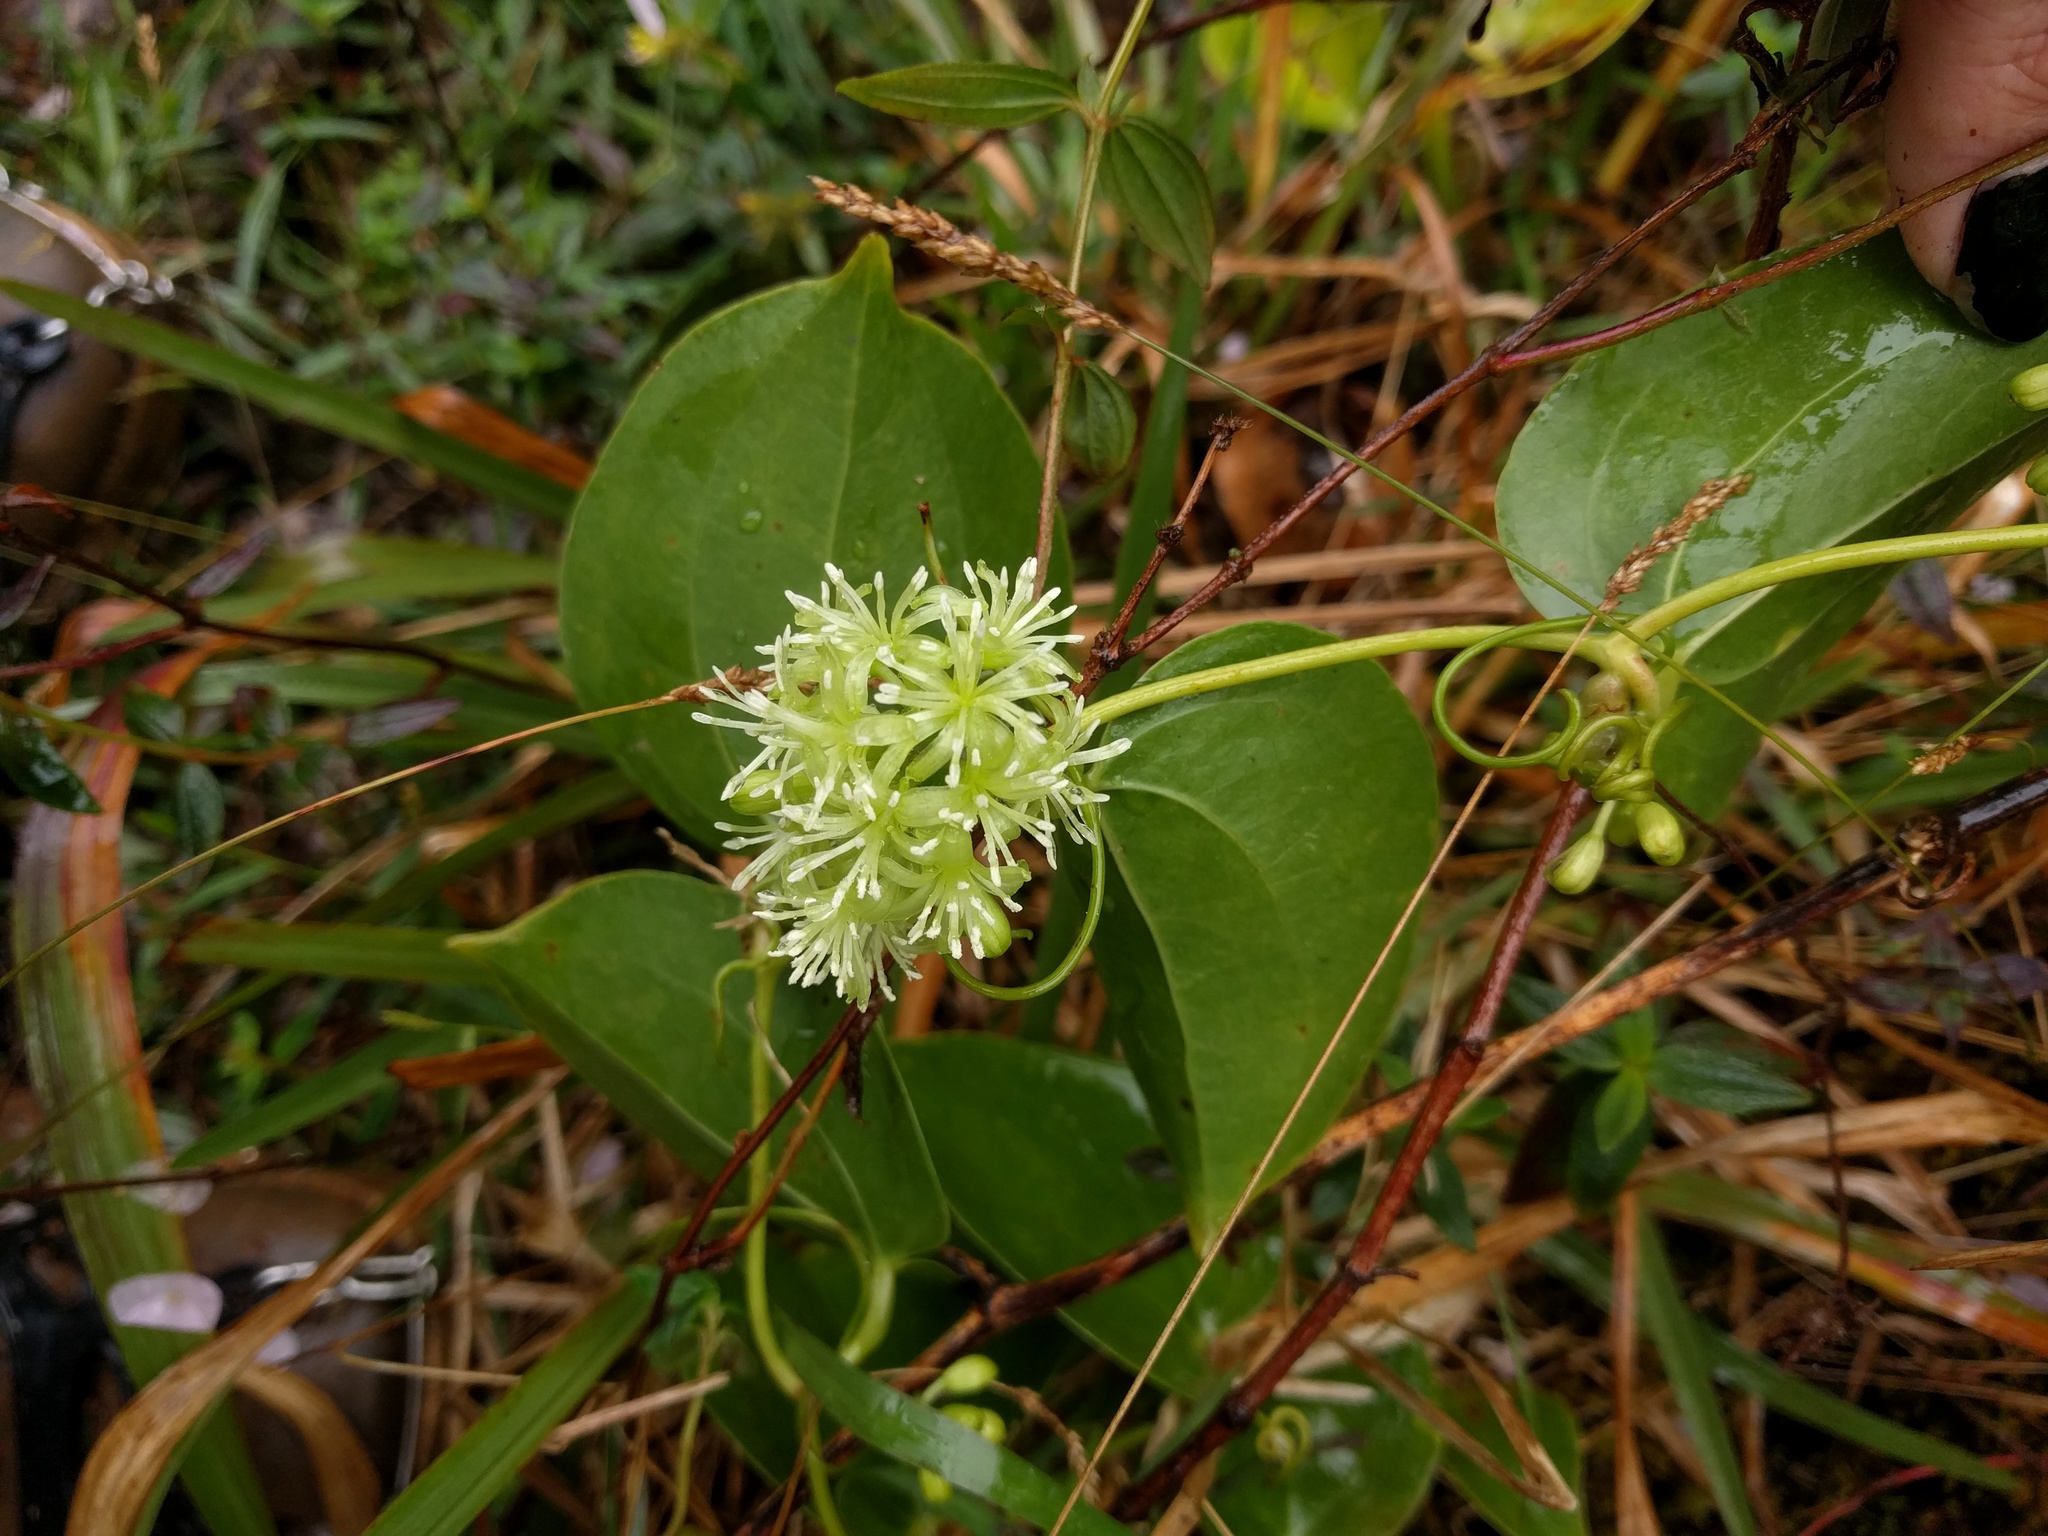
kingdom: Plantae
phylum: Tracheophyta
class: Liliopsida
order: Liliales
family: Smilacaceae
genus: Smilax
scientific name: Smilax melastomifolia
